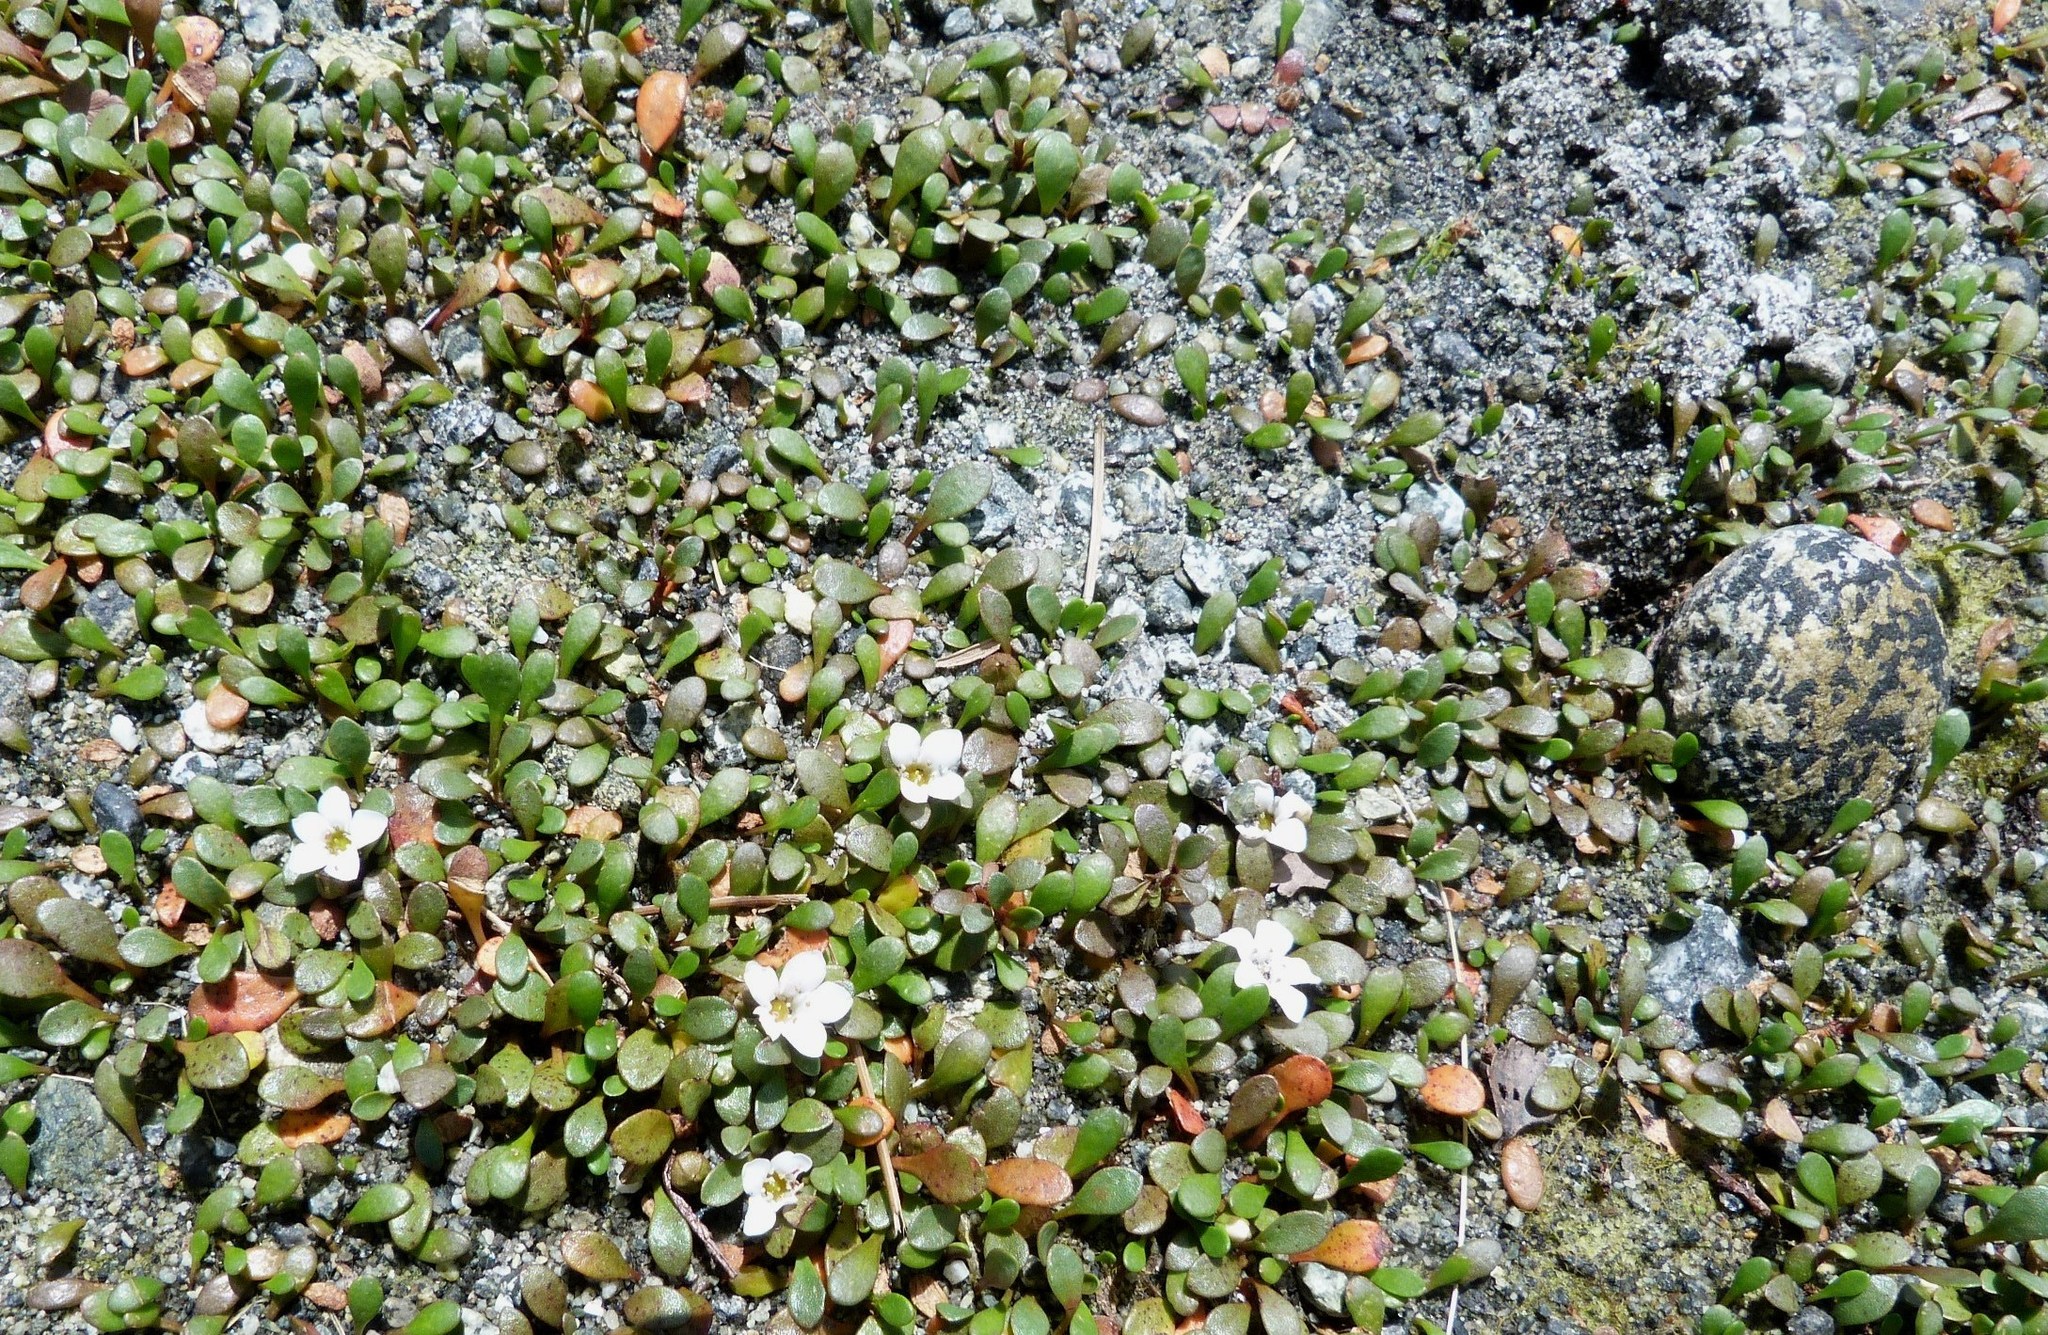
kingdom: Plantae
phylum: Tracheophyta
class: Magnoliopsida
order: Ericales
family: Primulaceae
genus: Samolus
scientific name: Samolus repens
